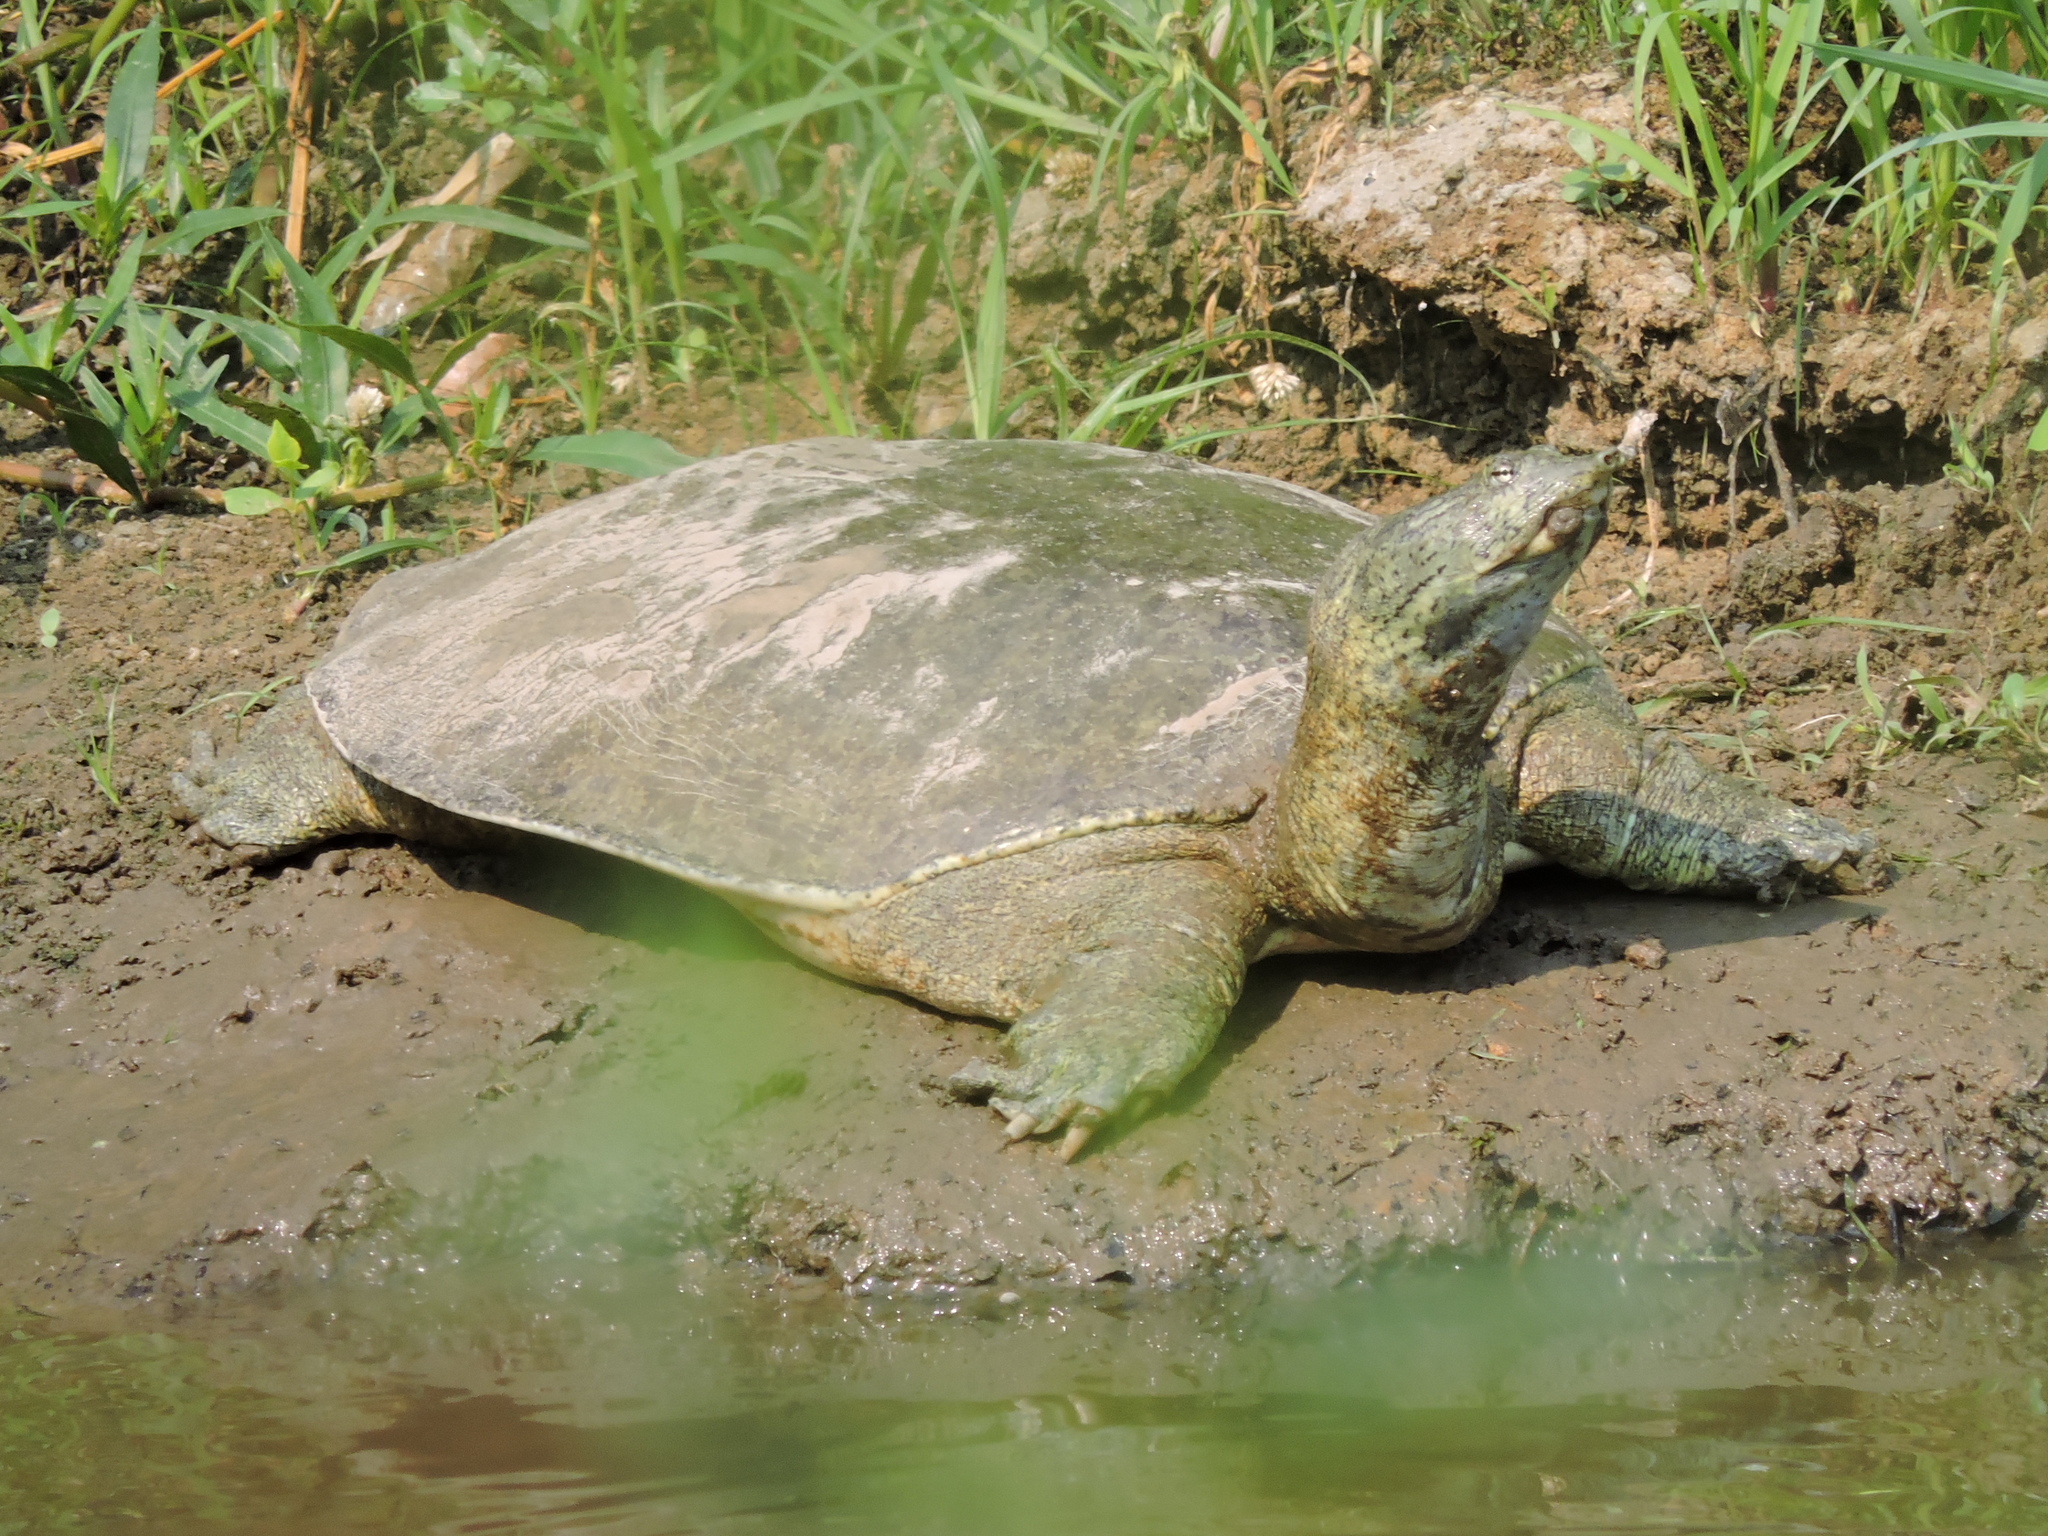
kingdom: Animalia
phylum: Chordata
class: Testudines
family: Trionychidae
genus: Apalone
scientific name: Apalone spinifera
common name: Spiny softshell turtle
